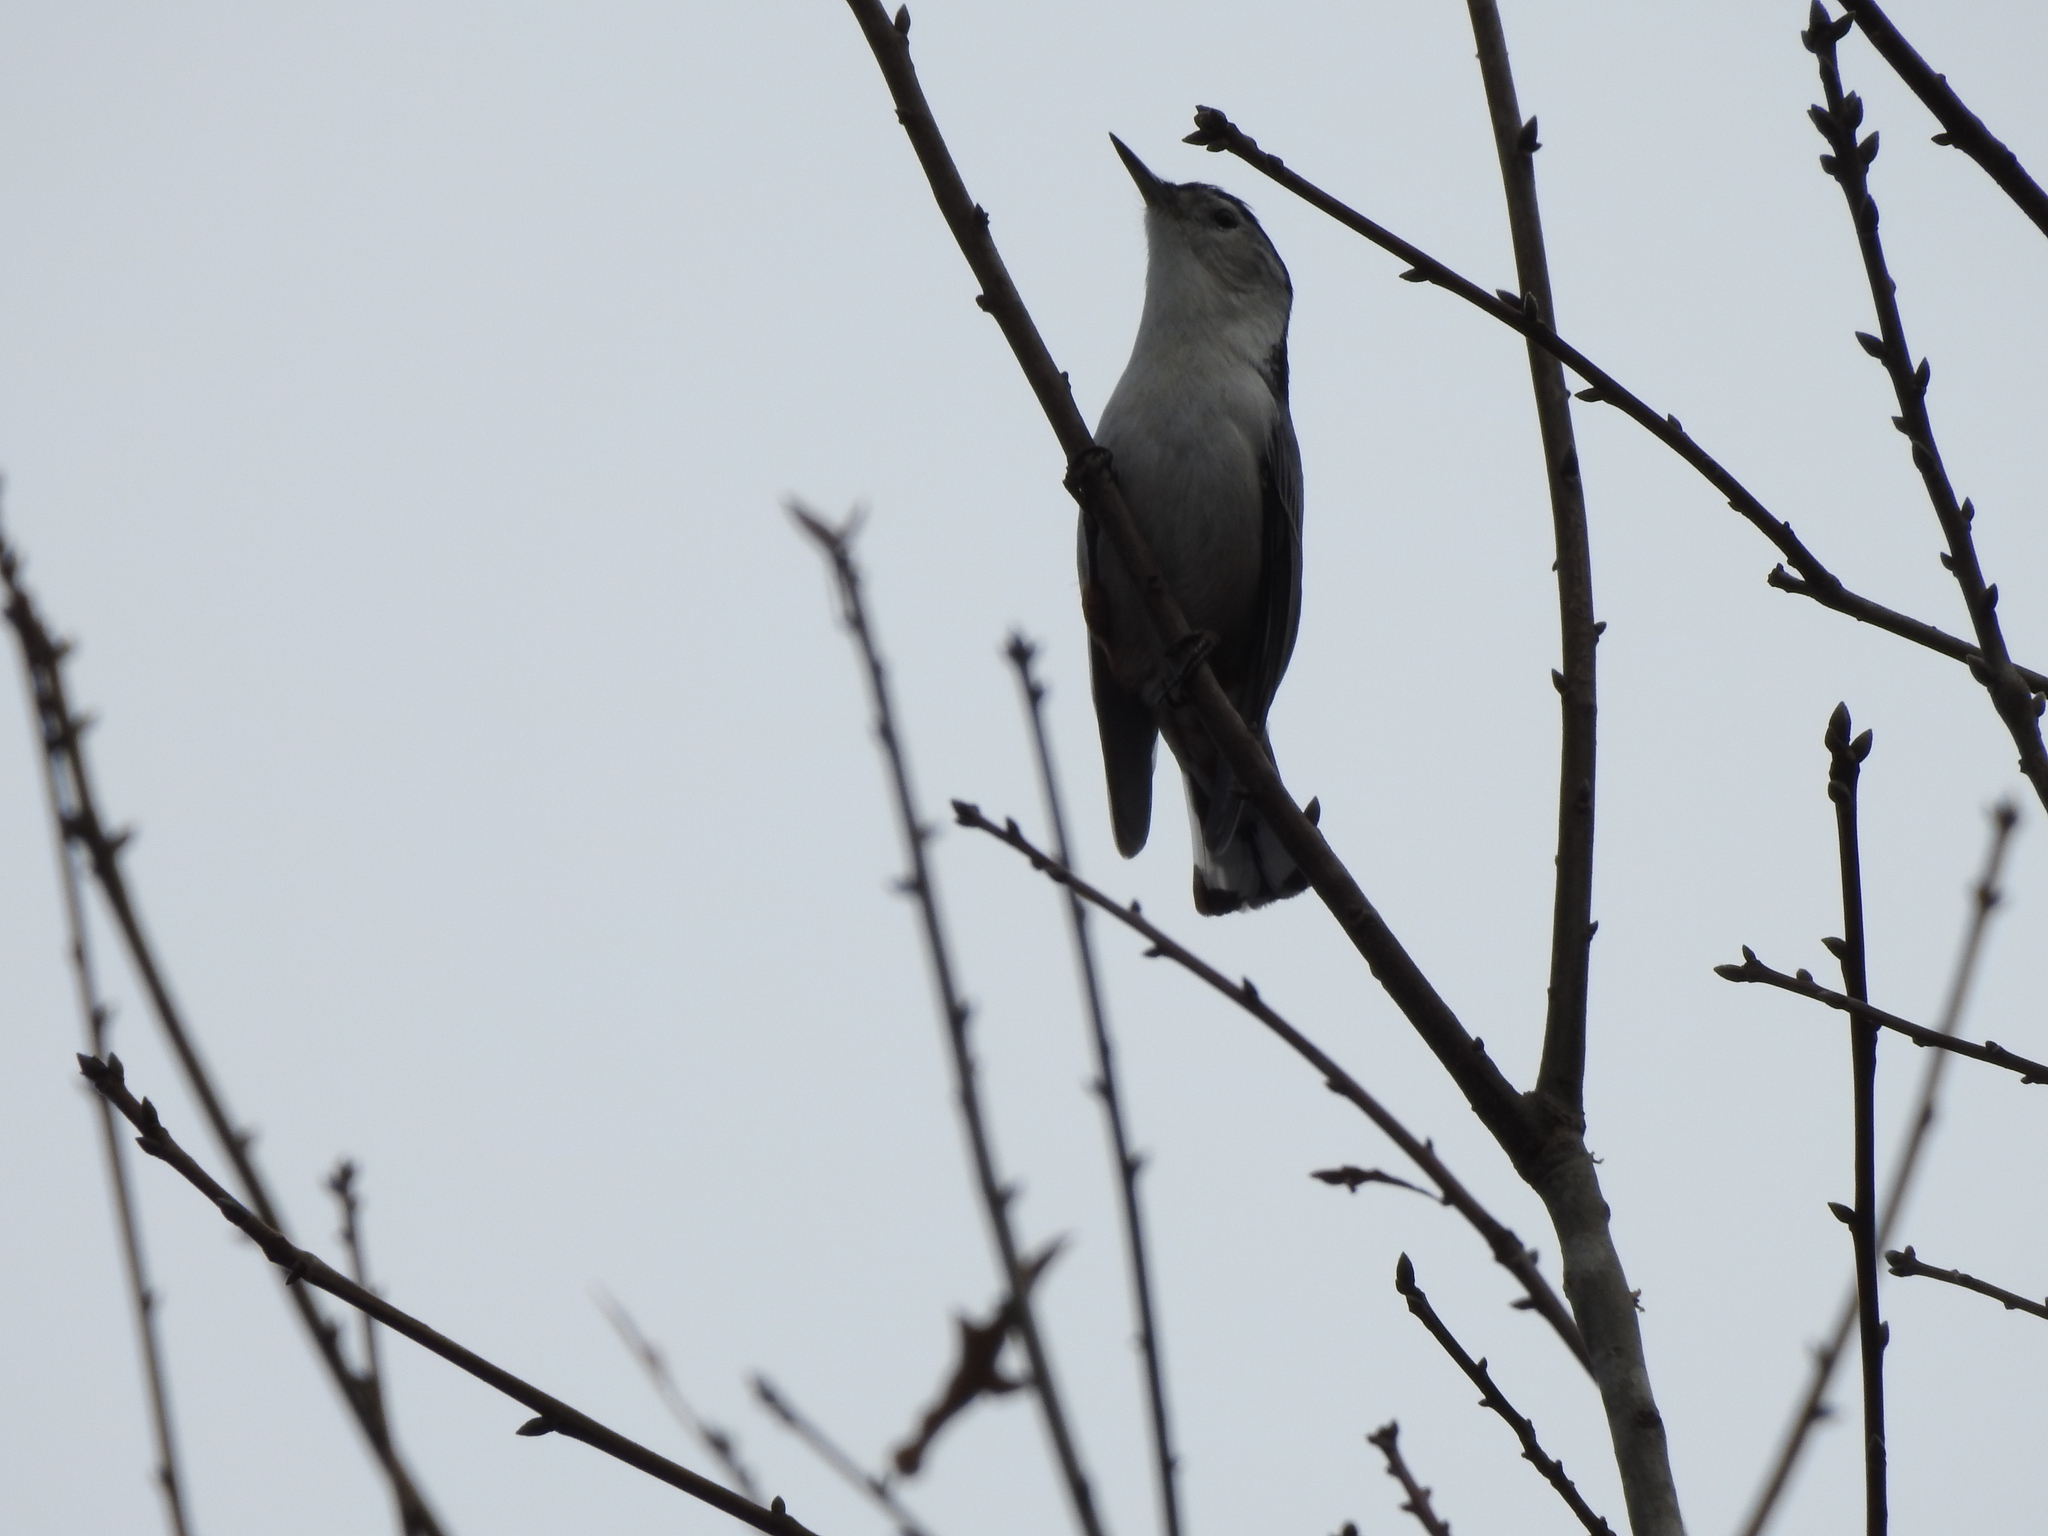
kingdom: Animalia
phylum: Chordata
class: Aves
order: Passeriformes
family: Sittidae
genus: Sitta
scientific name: Sitta carolinensis
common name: White-breasted nuthatch
